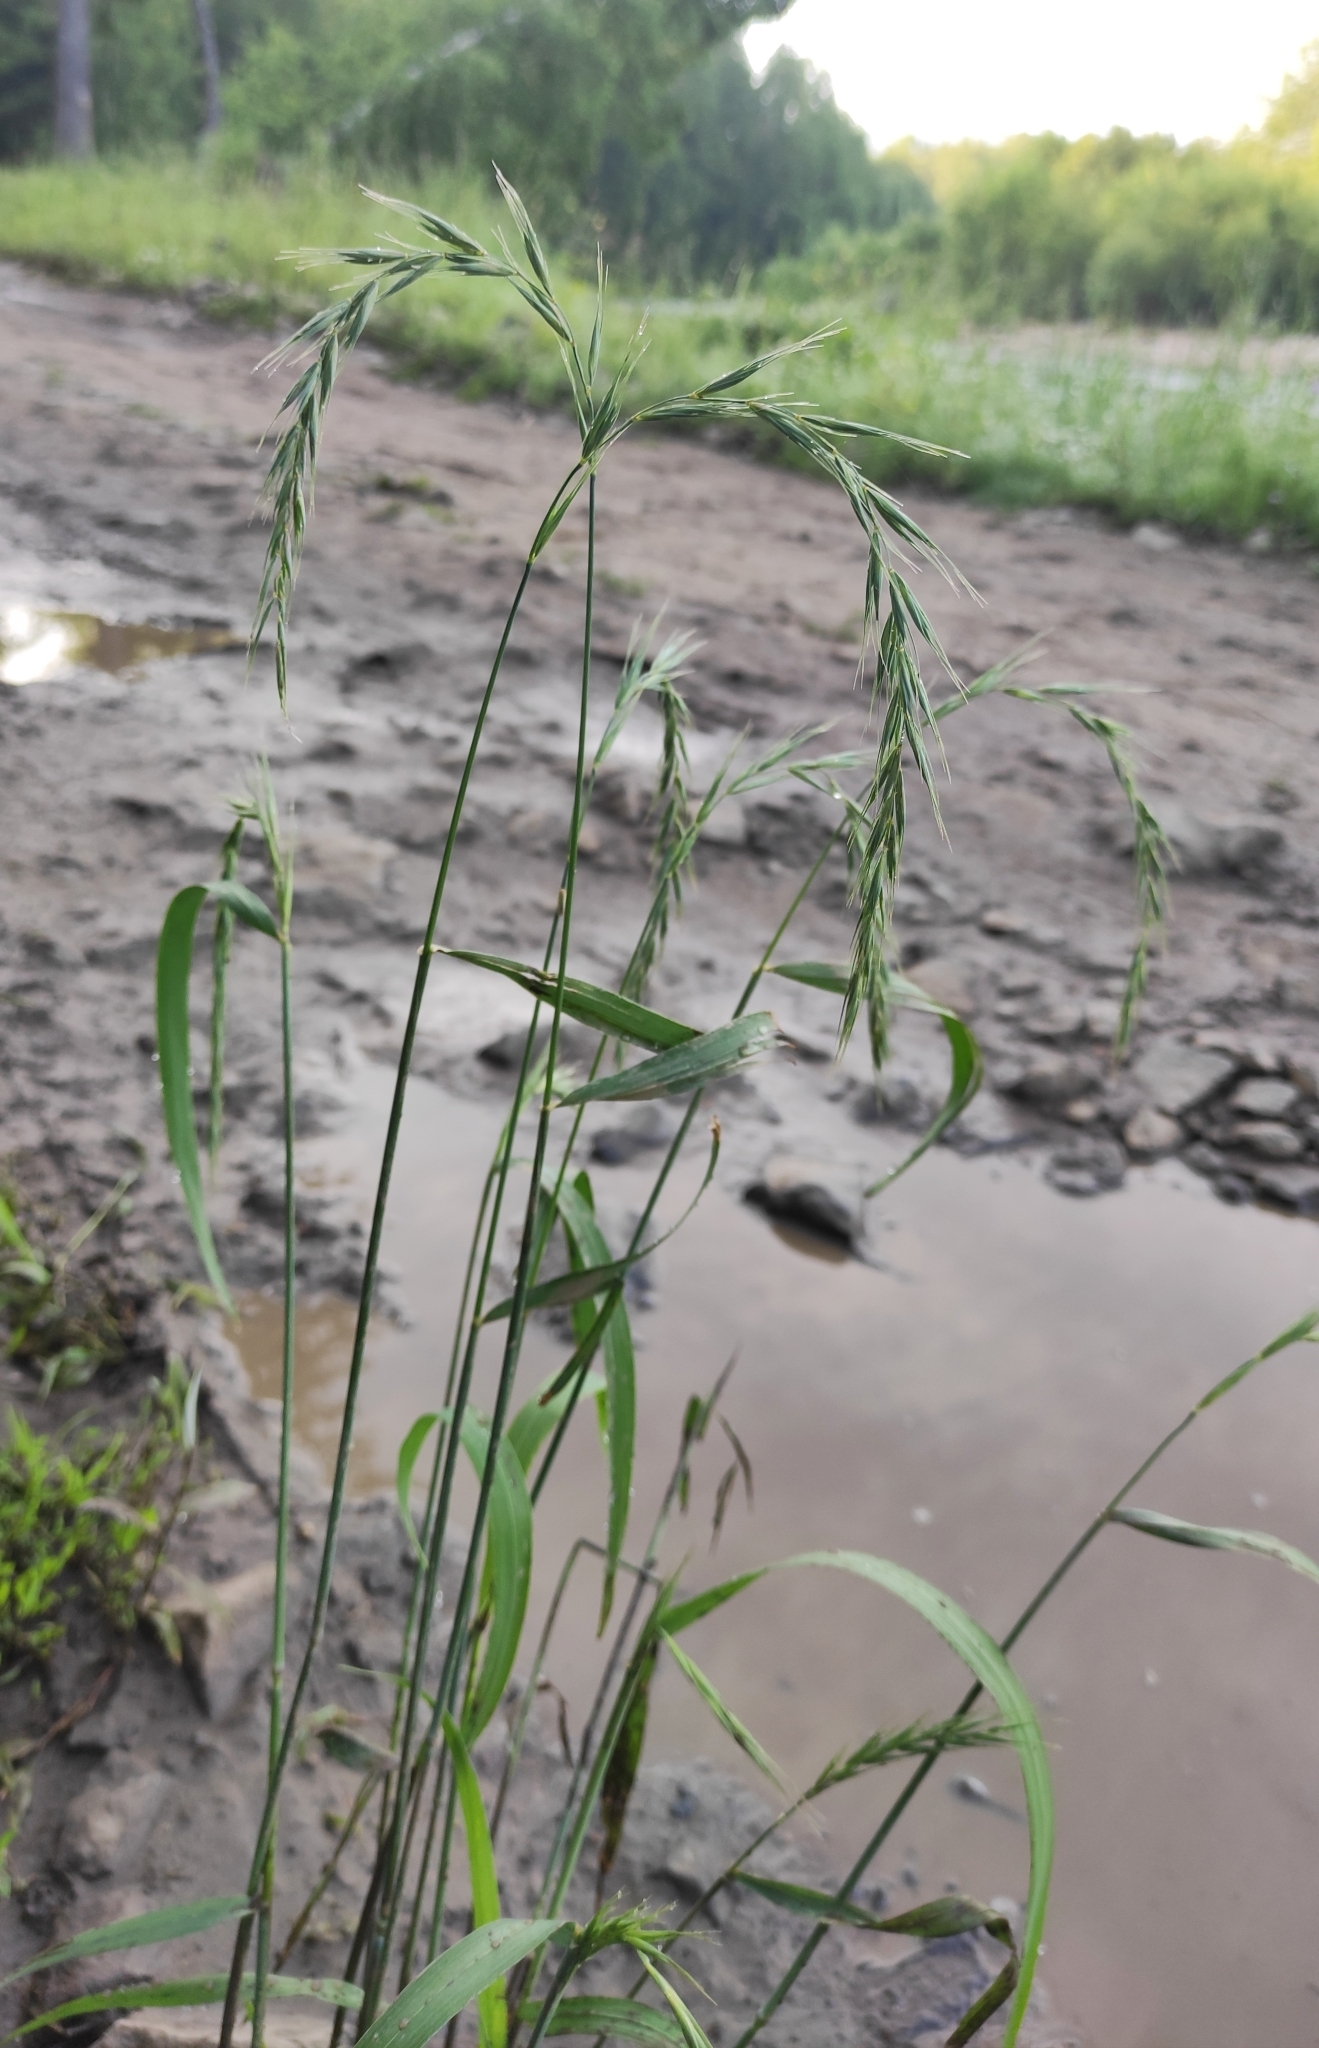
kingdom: Plantae
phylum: Tracheophyta
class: Liliopsida
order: Poales
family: Poaceae
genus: Elymus
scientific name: Elymus sibiricus
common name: Siberian wildrye
